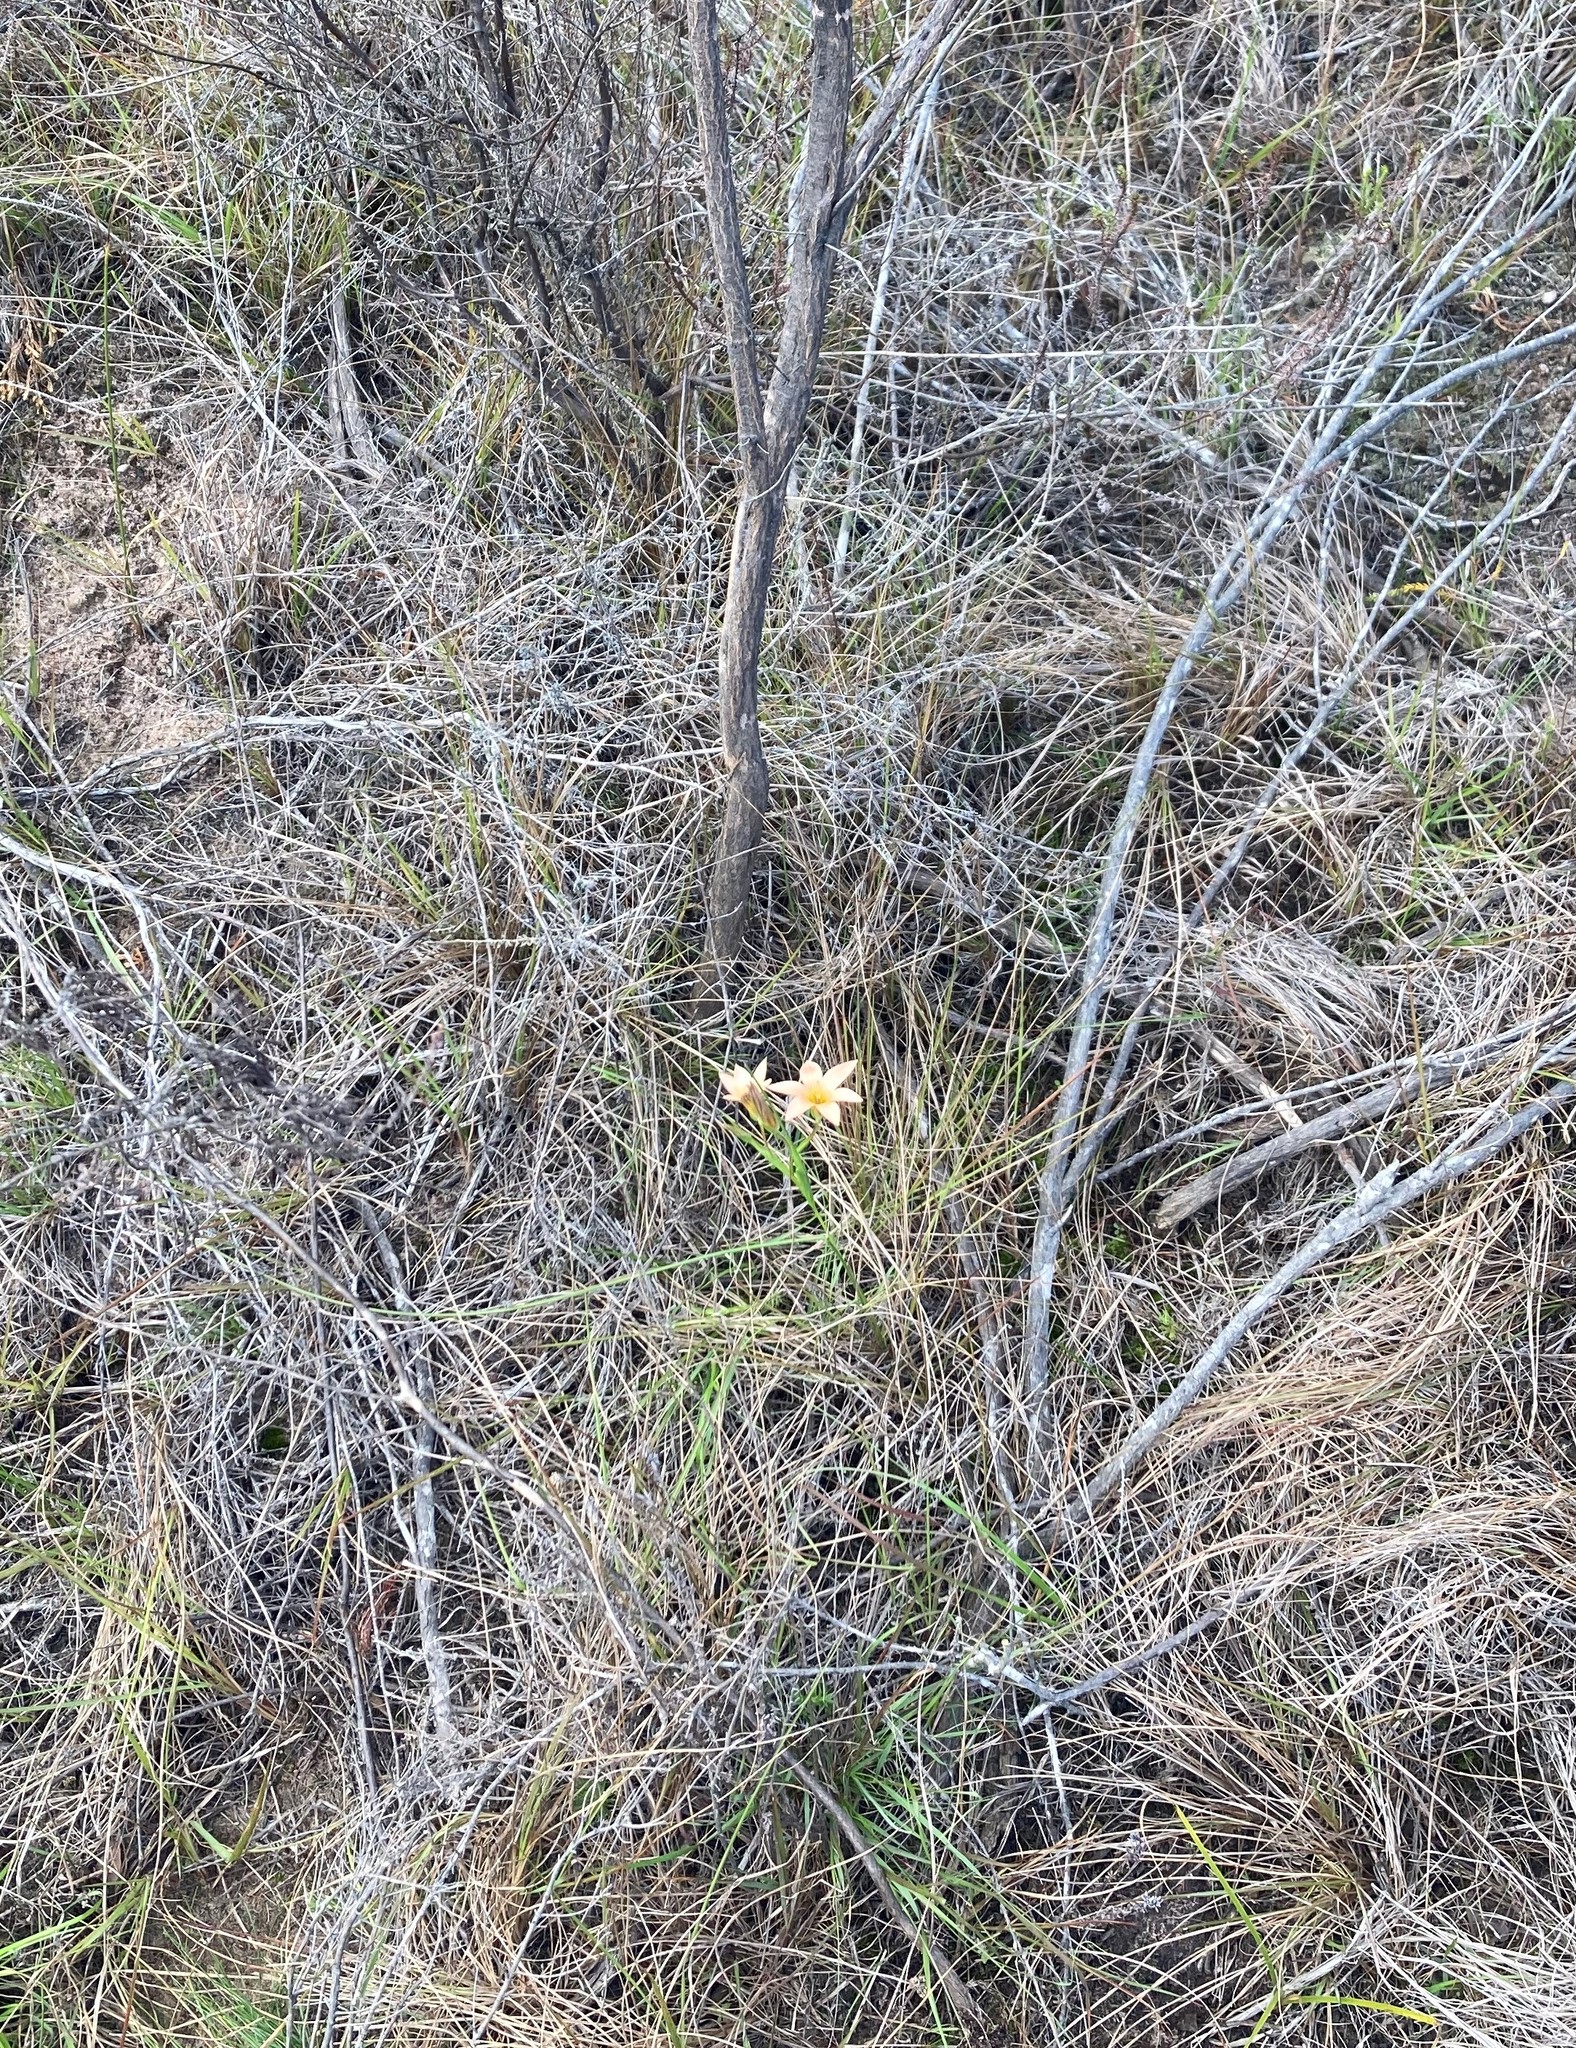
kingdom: Plantae
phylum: Tracheophyta
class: Liliopsida
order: Asparagales
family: Iridaceae
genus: Romulea
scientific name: Romulea dichotoma
